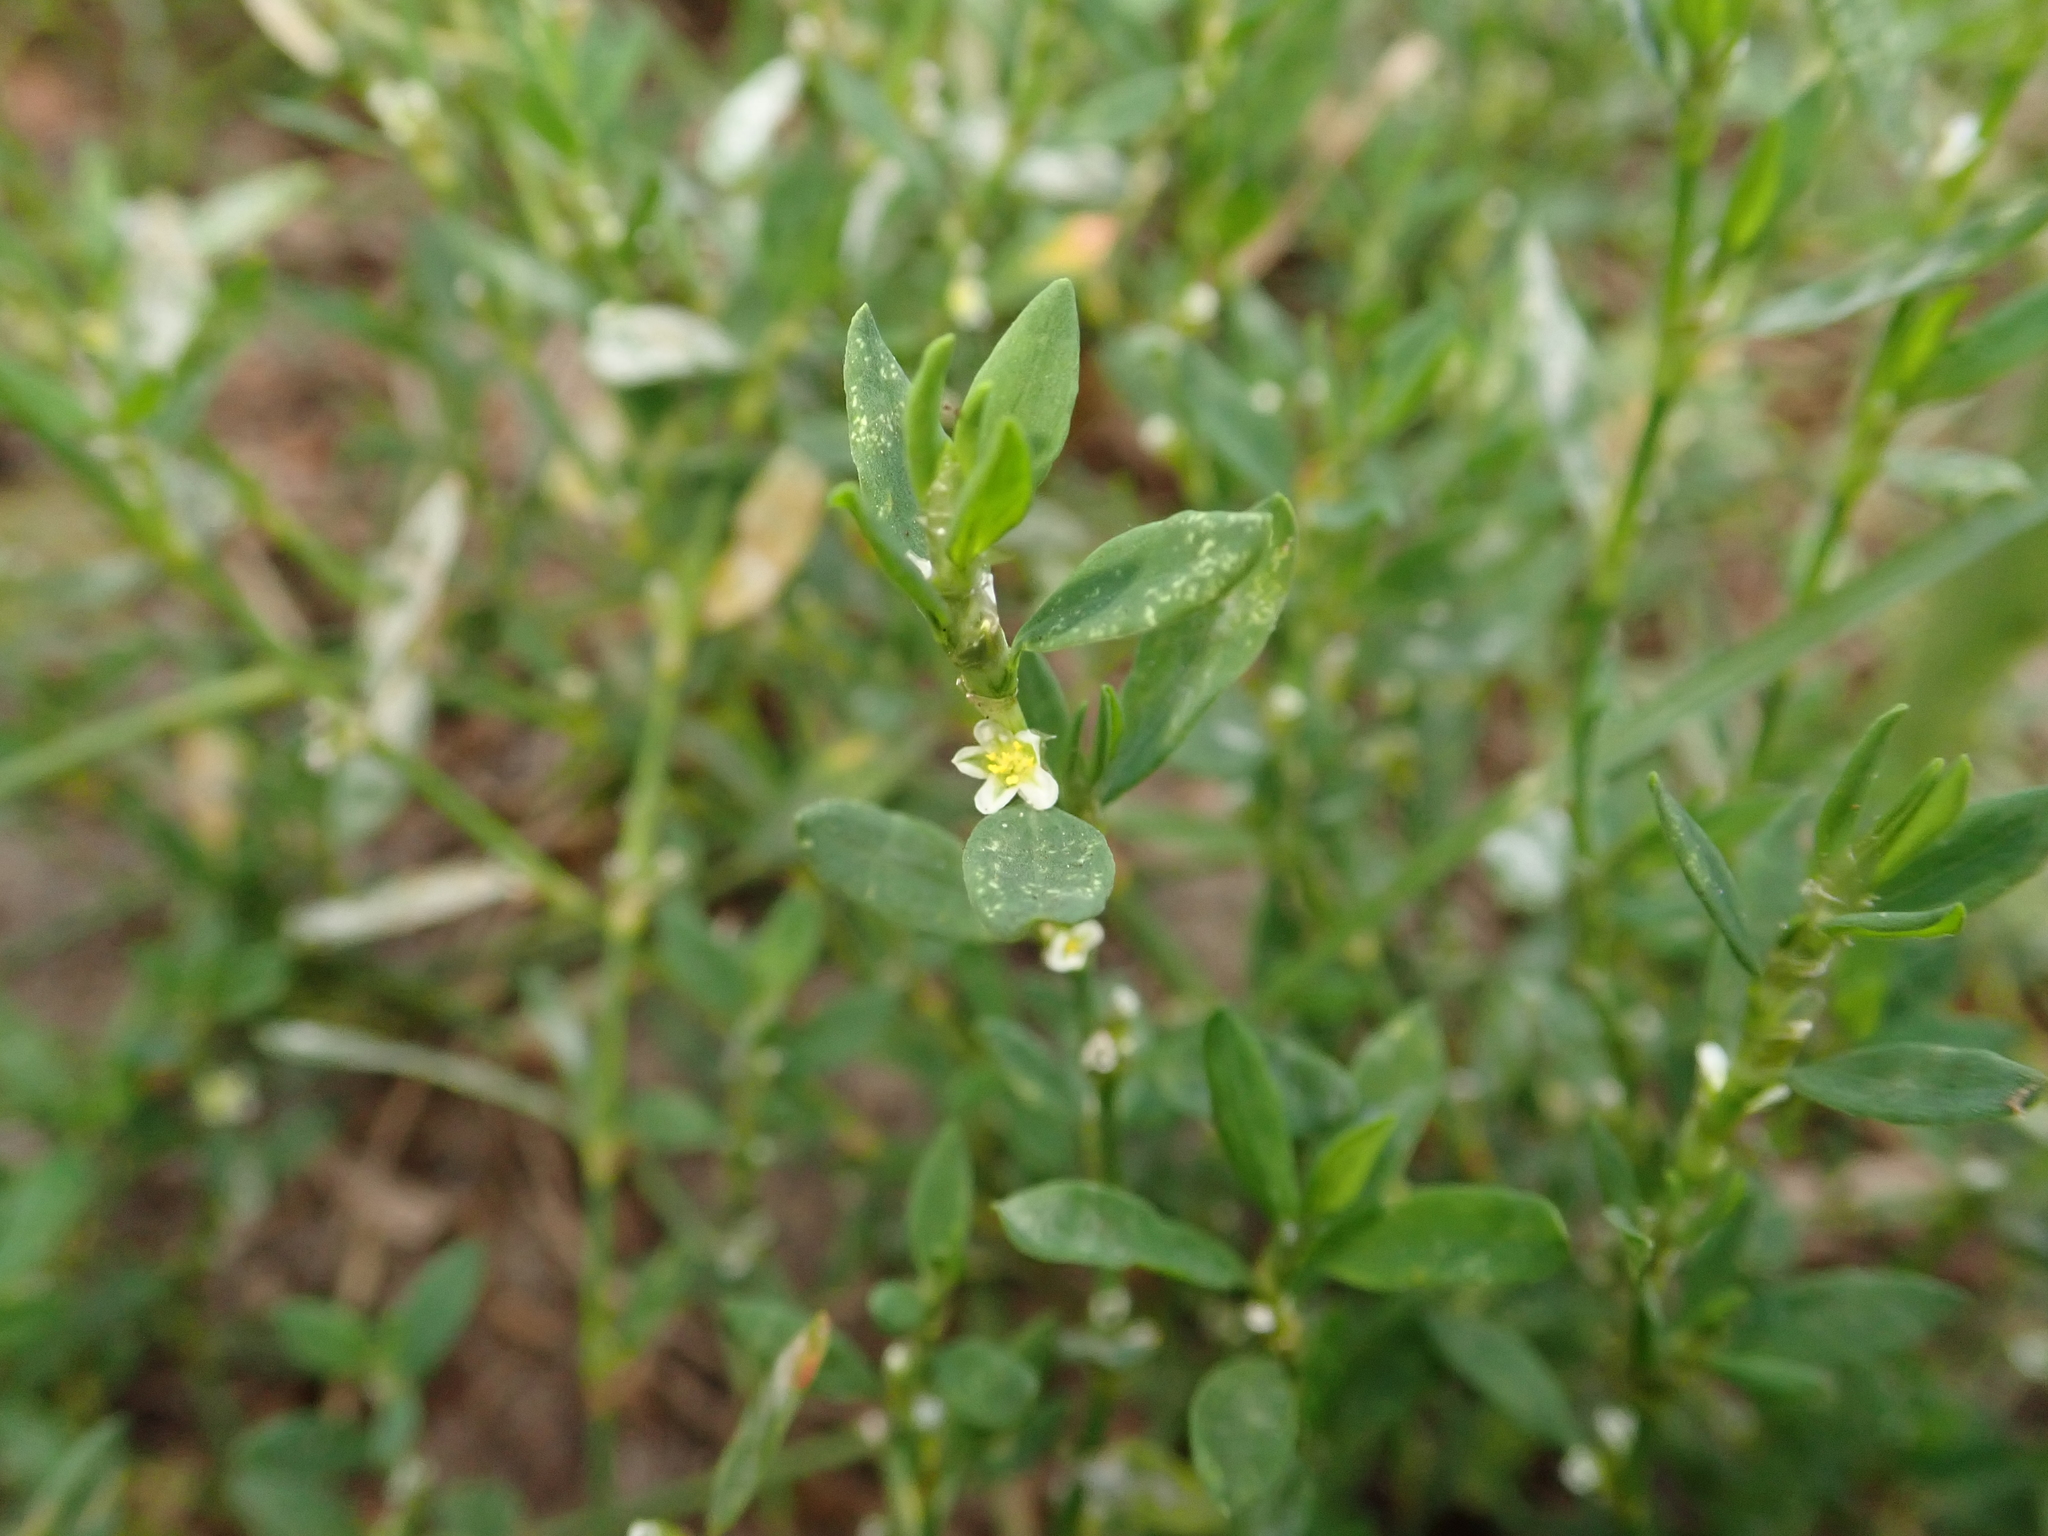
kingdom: Plantae
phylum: Tracheophyta
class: Magnoliopsida
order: Caryophyllales
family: Polygonaceae
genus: Polygonum
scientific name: Polygonum aviculare
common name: Prostrate knotweed
